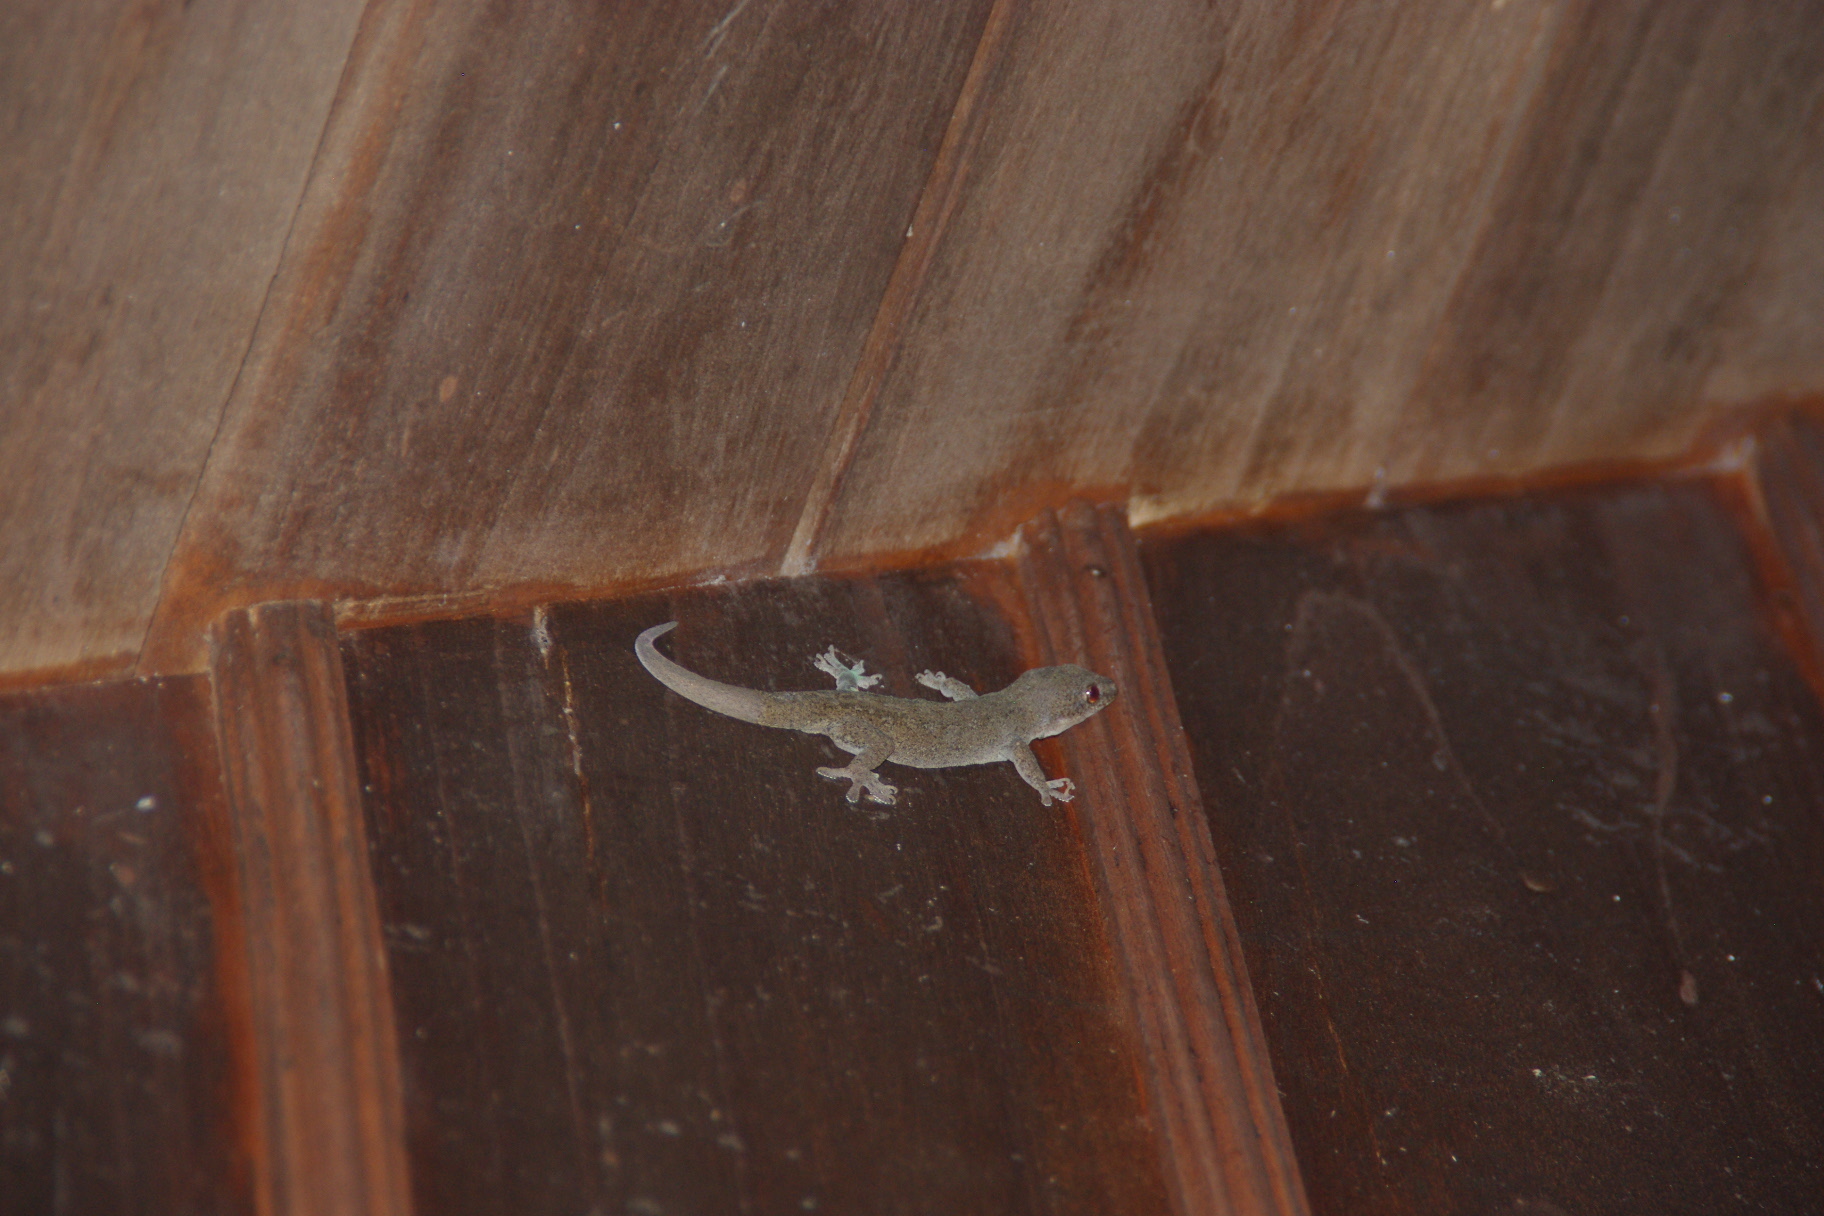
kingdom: Animalia
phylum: Chordata
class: Squamata
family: Gekkonidae
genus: Hemidactylus
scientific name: Hemidactylus frenatus
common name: Common house gecko
